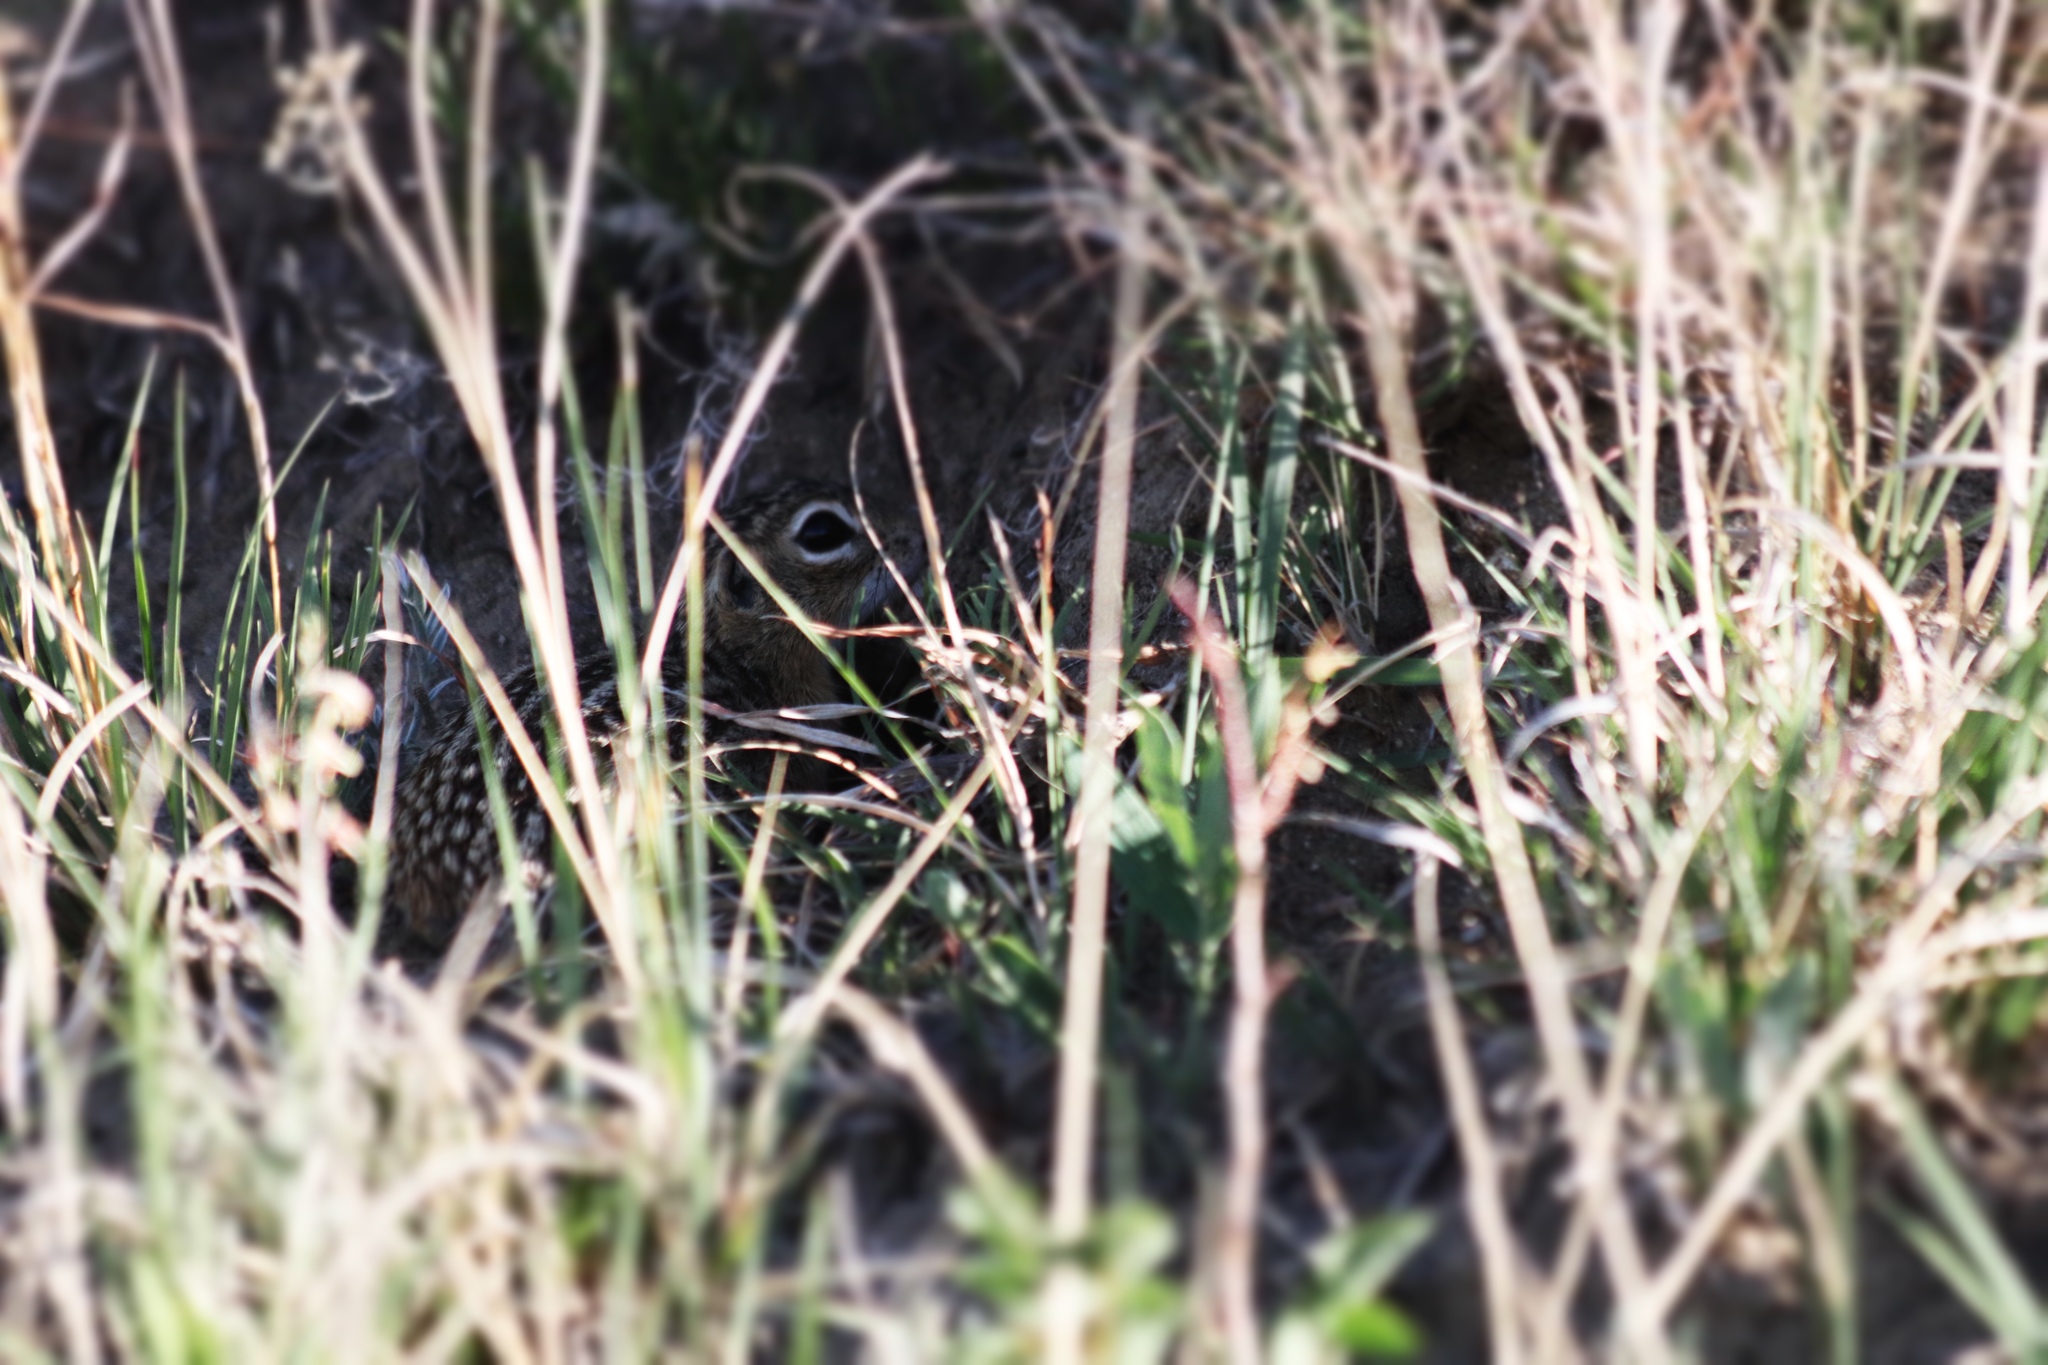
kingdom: Animalia
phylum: Chordata
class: Mammalia
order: Rodentia
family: Sciuridae
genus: Ictidomys
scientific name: Ictidomys tridecemlineatus
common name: Thirteen-lined ground squirrel
